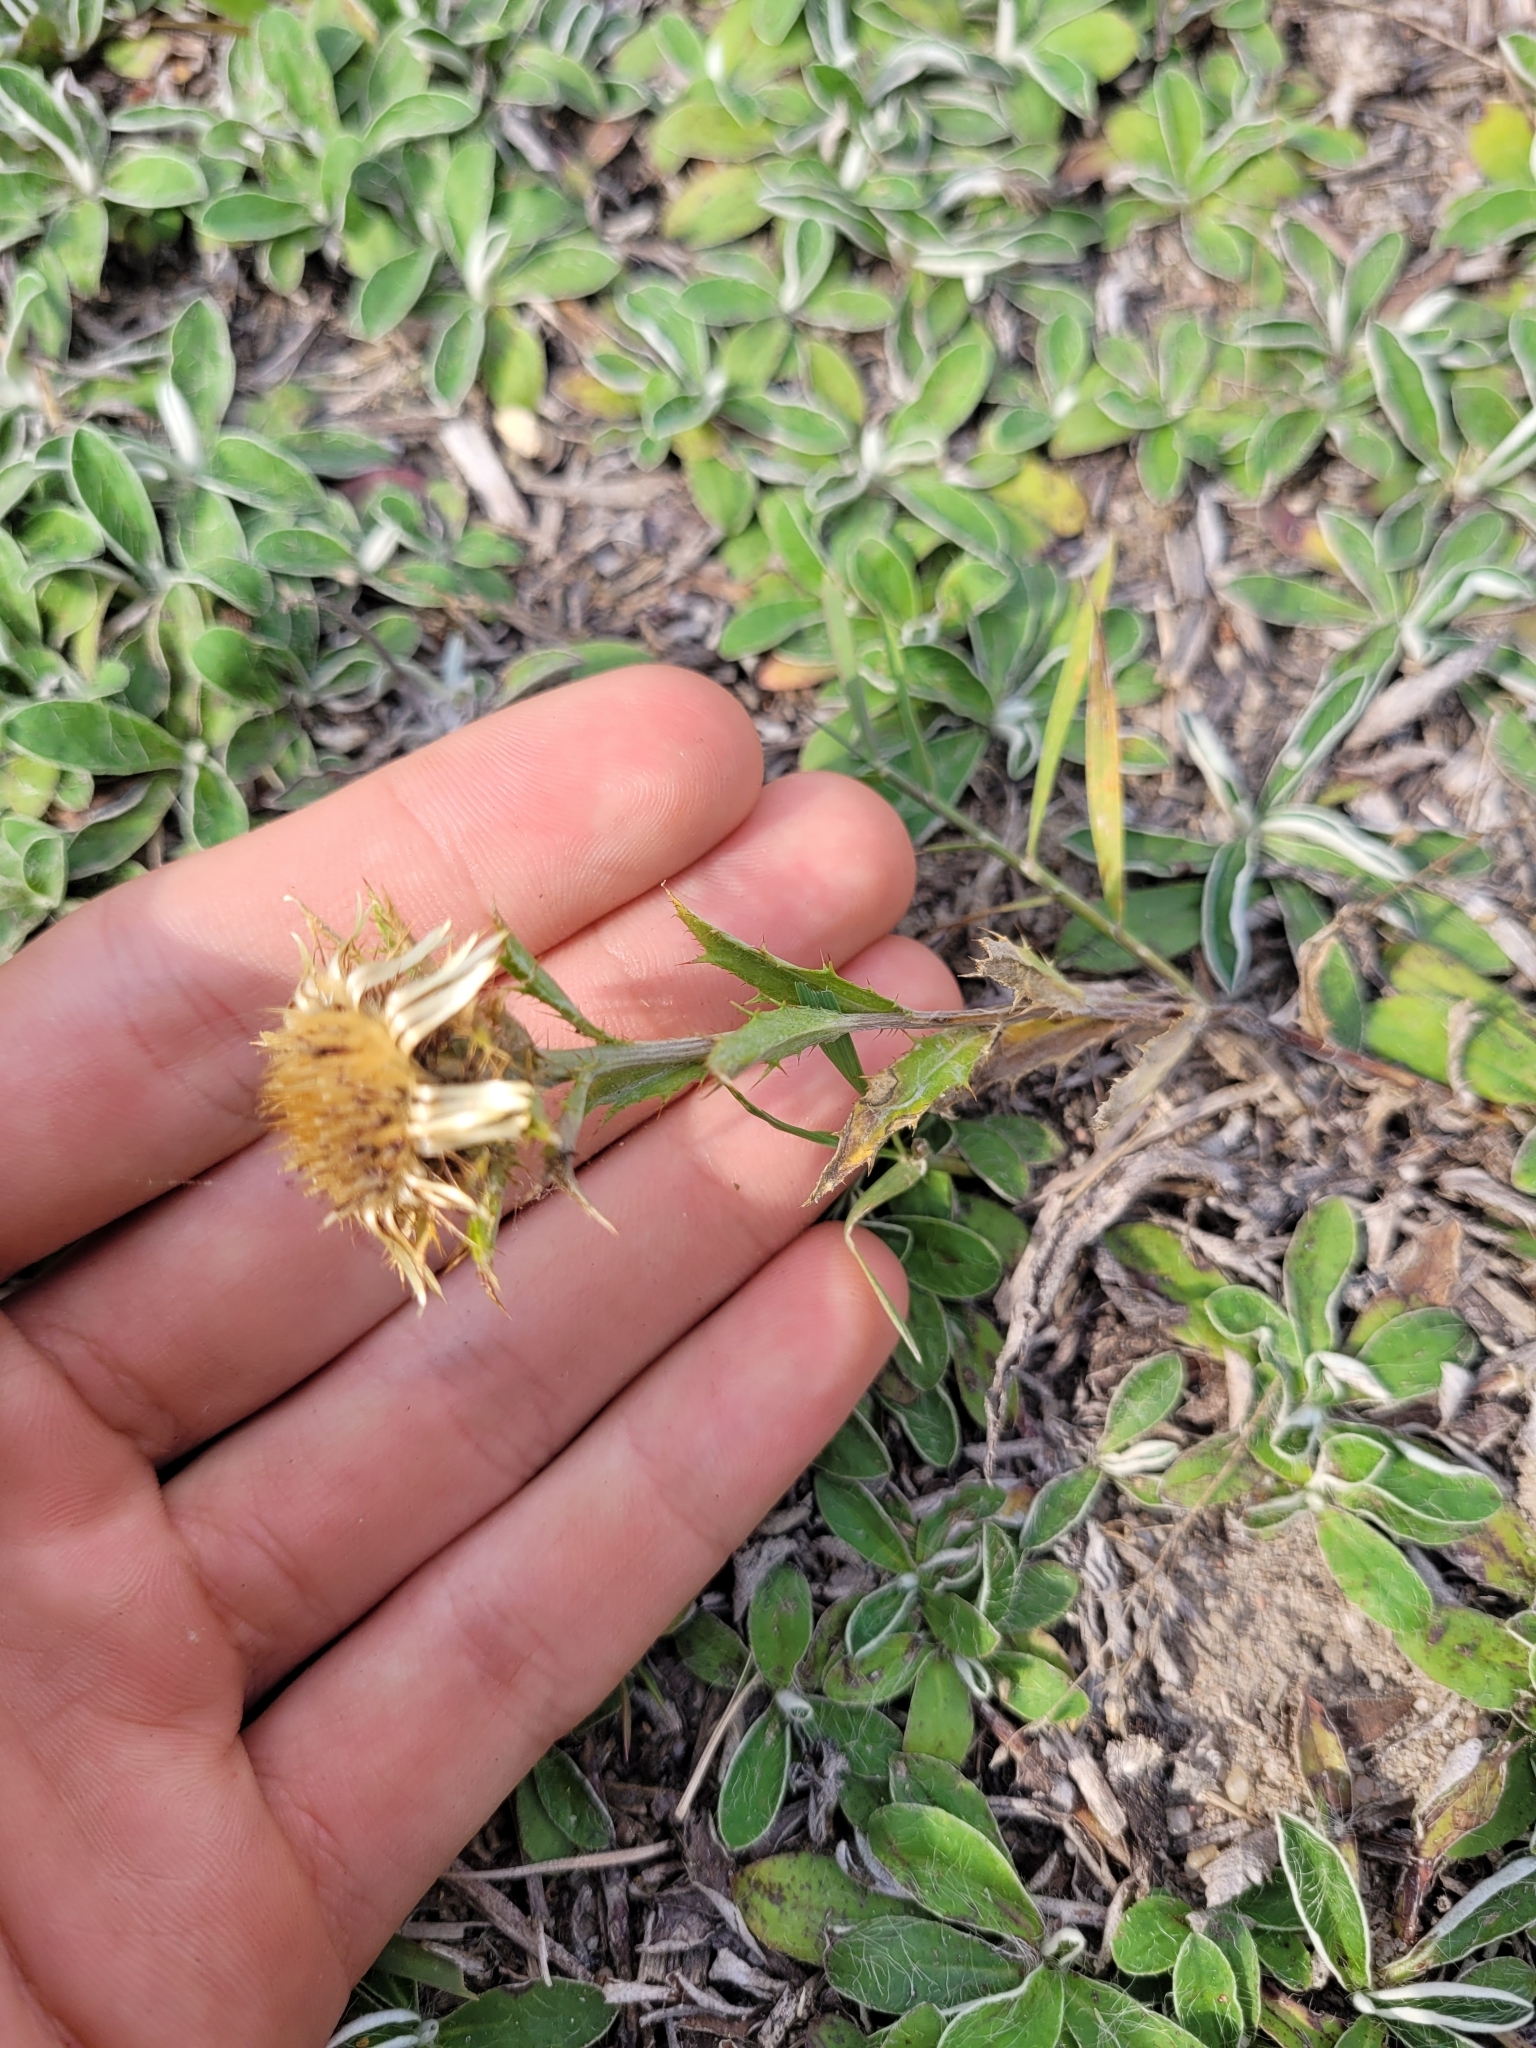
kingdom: Plantae
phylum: Tracheophyta
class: Magnoliopsida
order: Asterales
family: Asteraceae
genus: Carlina
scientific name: Carlina vulgaris
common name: Carline thistle
